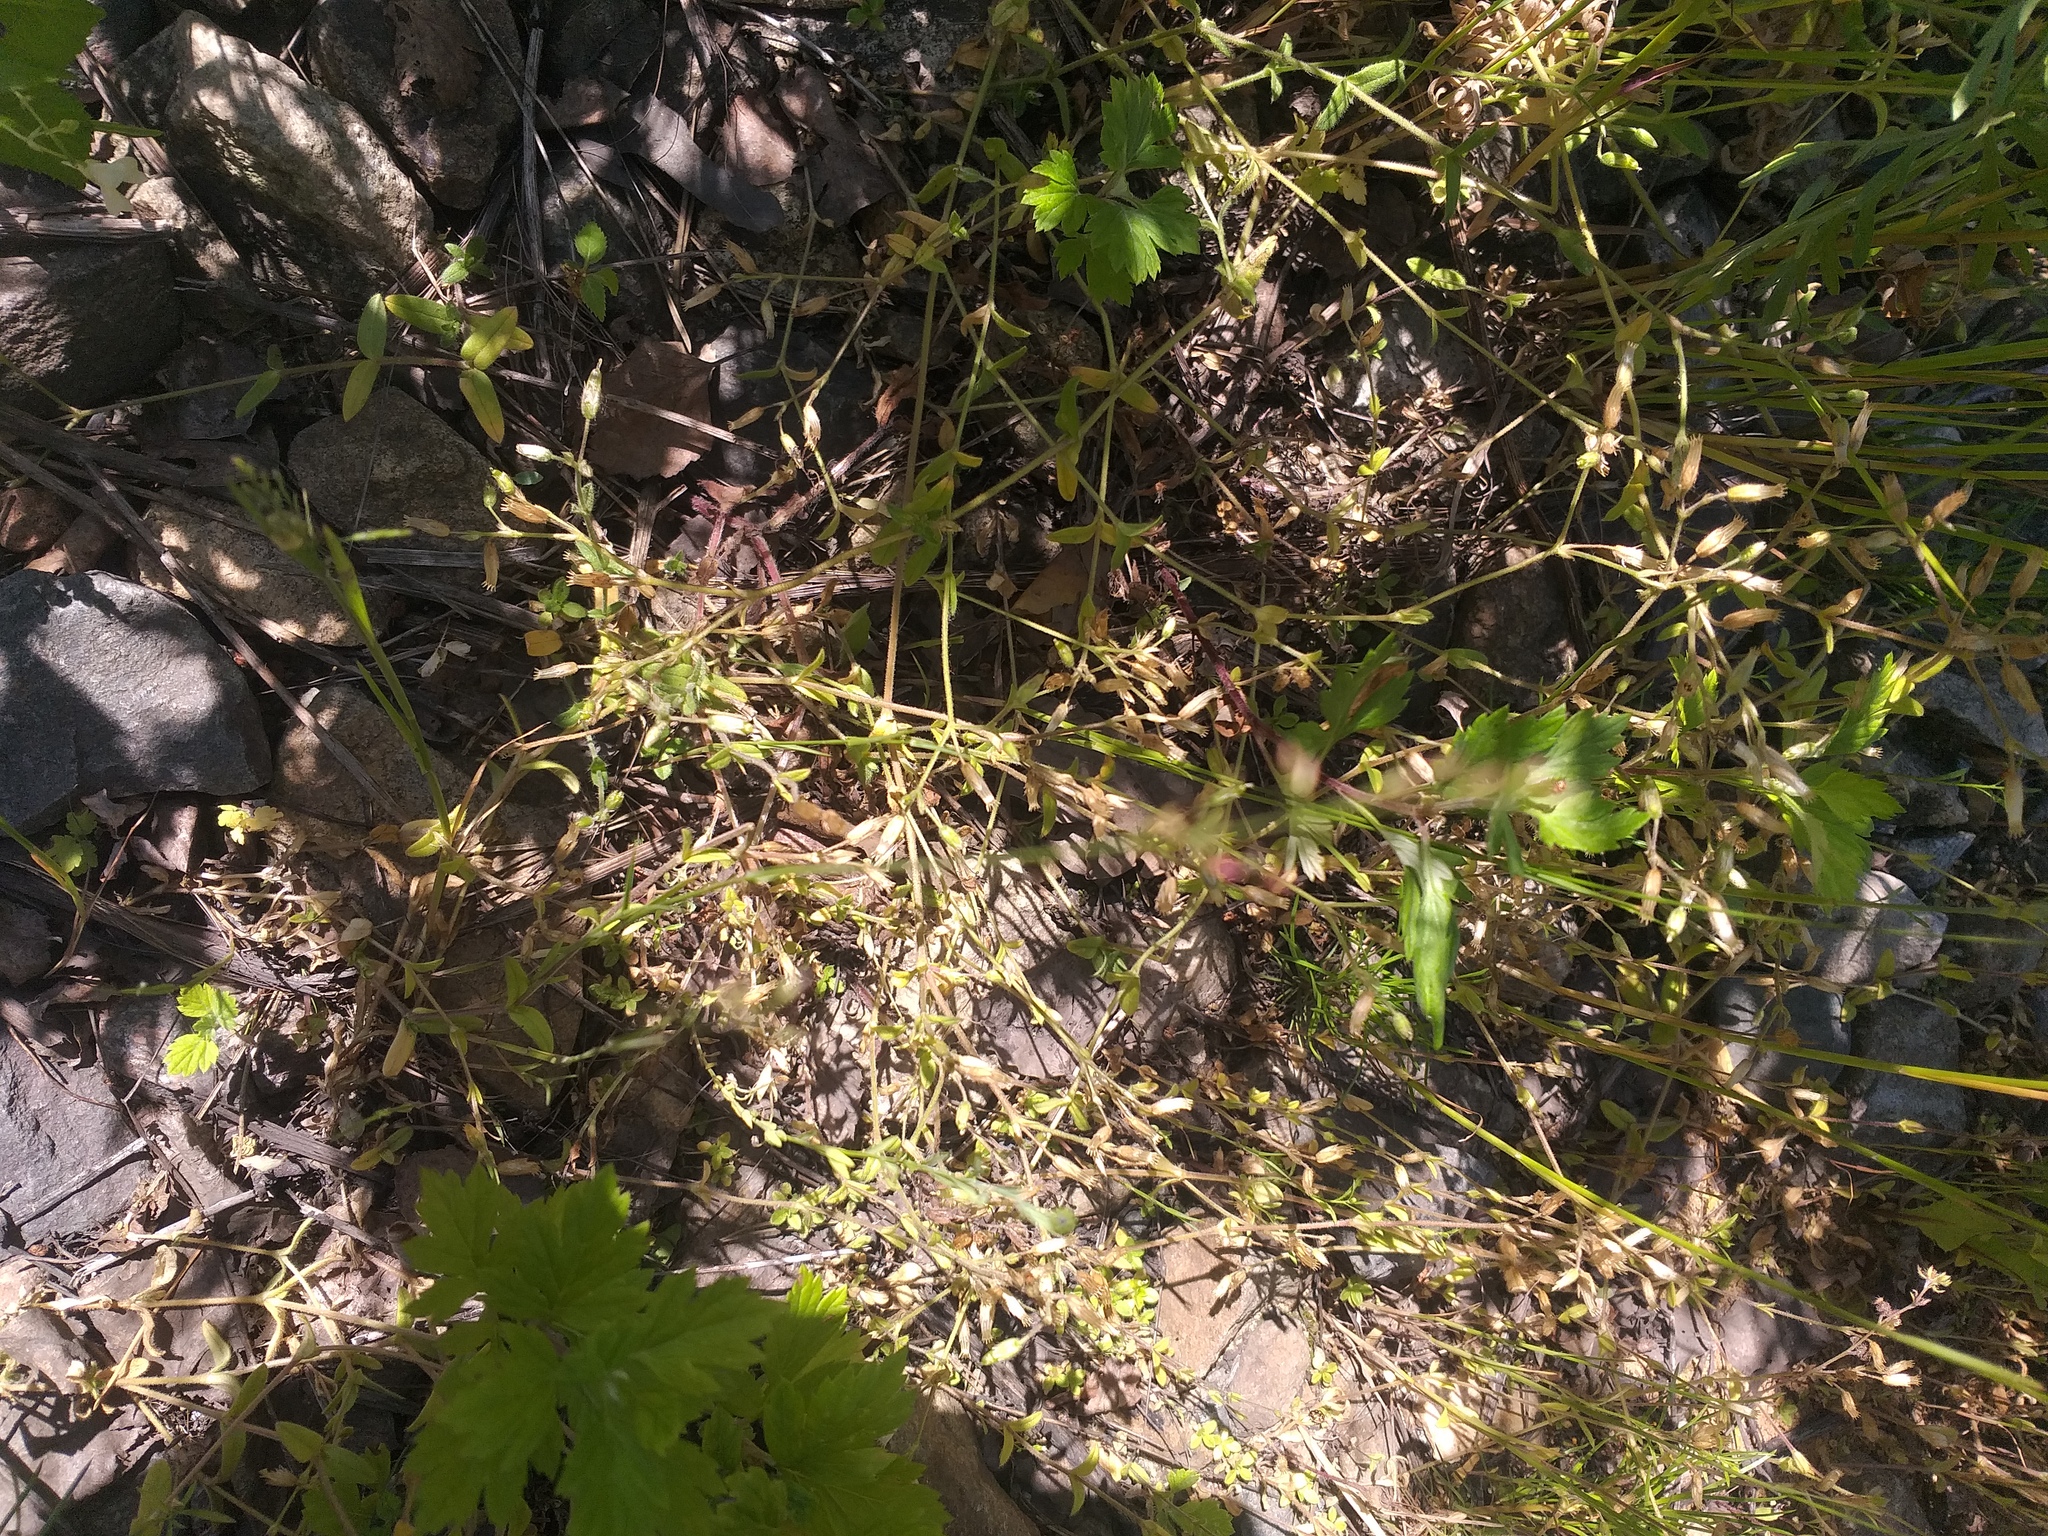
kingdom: Plantae
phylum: Tracheophyta
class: Magnoliopsida
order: Caryophyllales
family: Caryophyllaceae
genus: Cerastium
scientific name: Cerastium holosteoides
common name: Big chickweed
